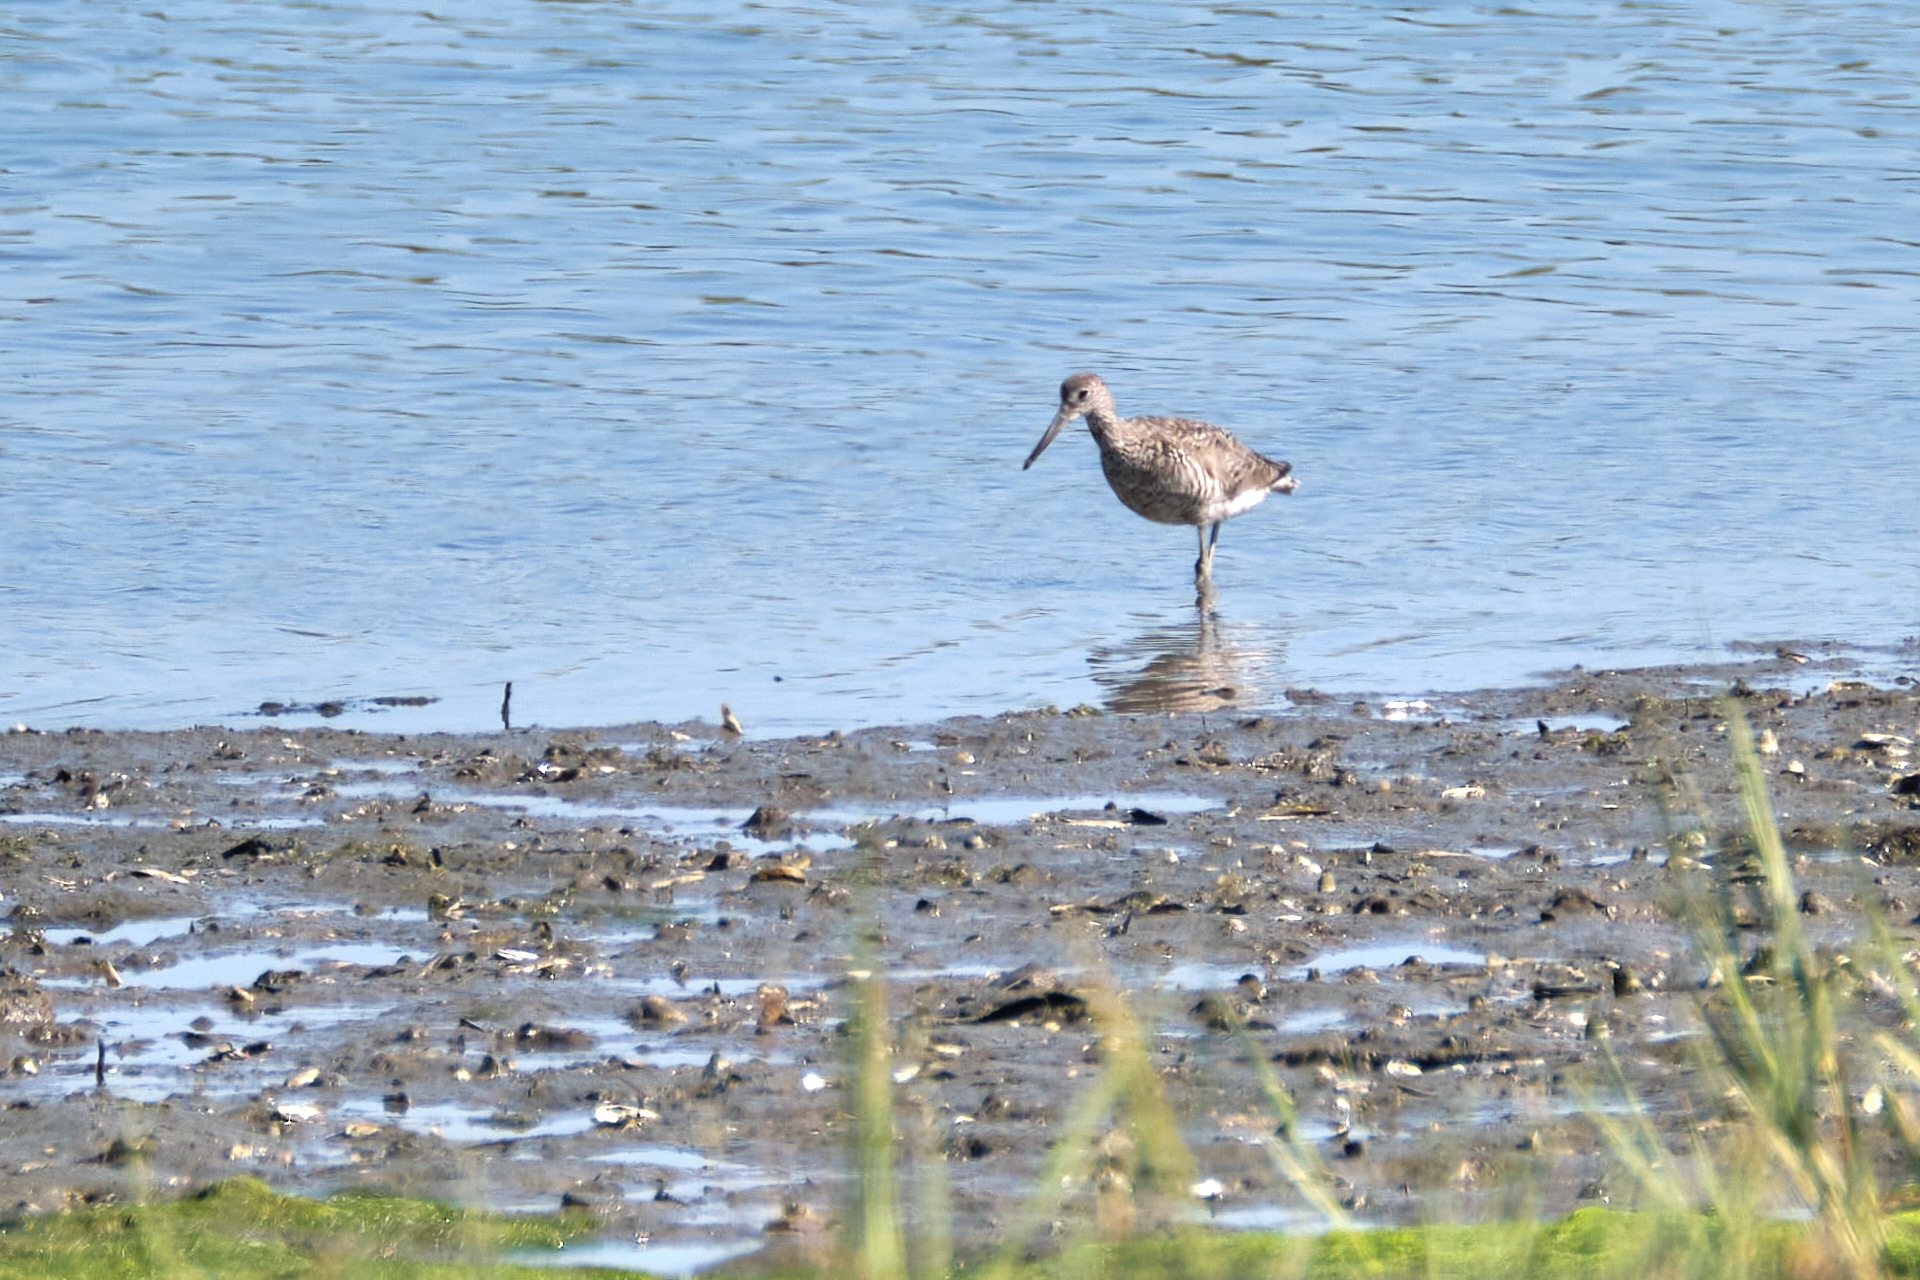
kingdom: Animalia
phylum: Chordata
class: Aves
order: Charadriiformes
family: Scolopacidae
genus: Tringa
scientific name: Tringa semipalmata
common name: Willet
